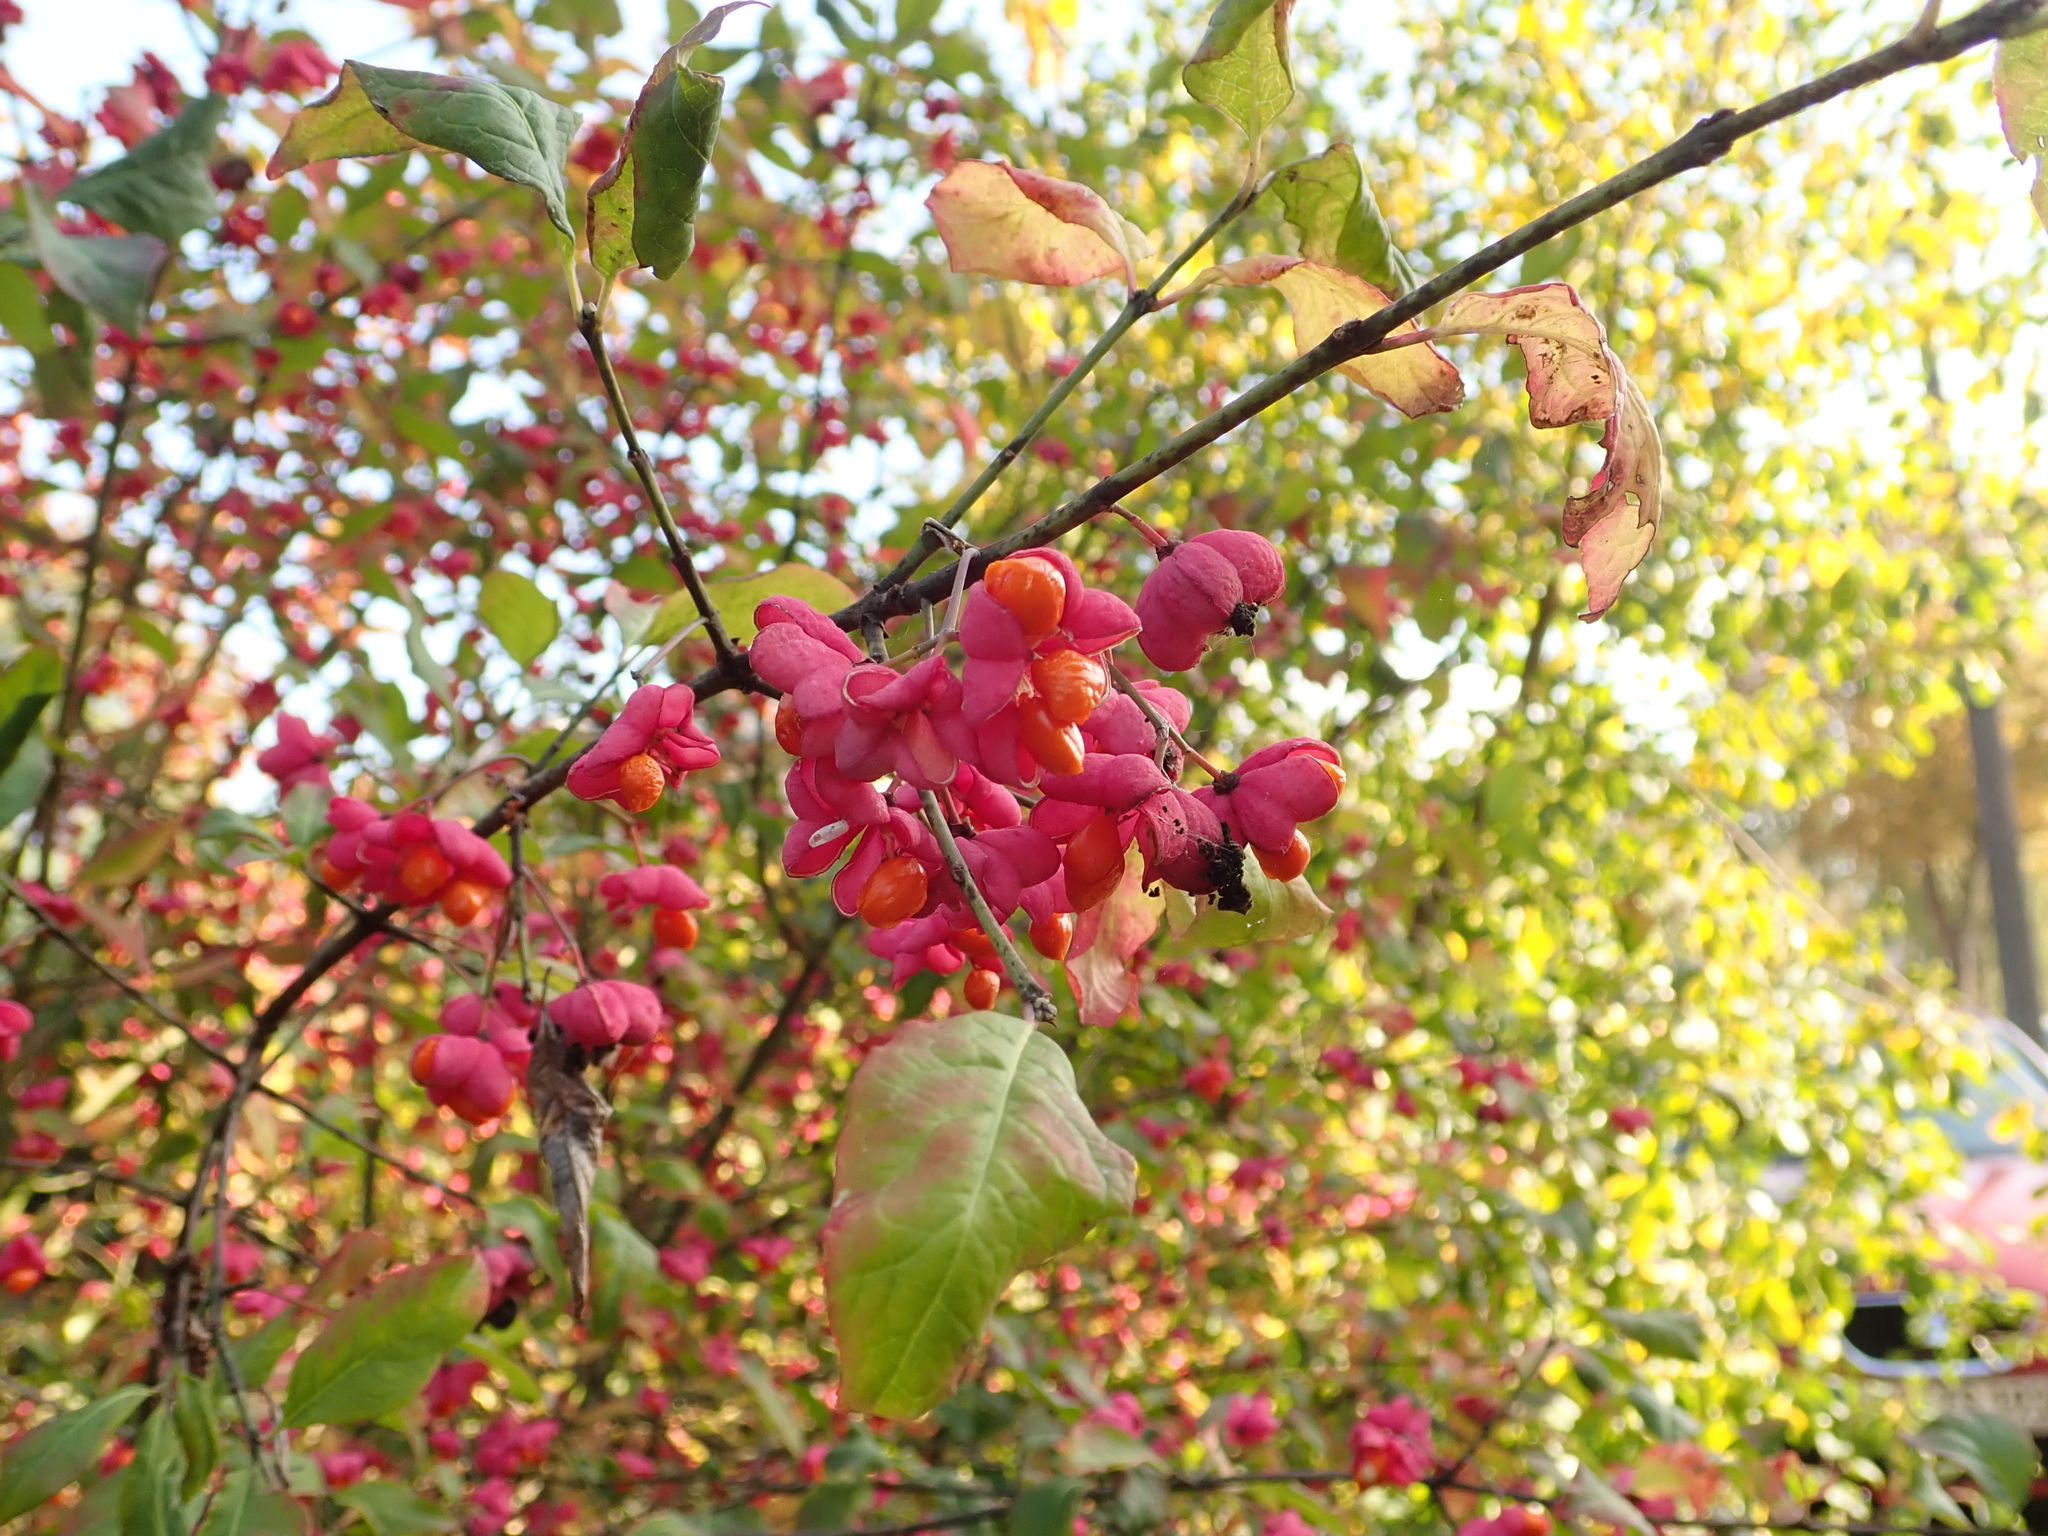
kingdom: Plantae
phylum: Tracheophyta
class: Magnoliopsida
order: Celastrales
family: Celastraceae
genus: Euonymus
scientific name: Euonymus europaeus
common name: Spindle
